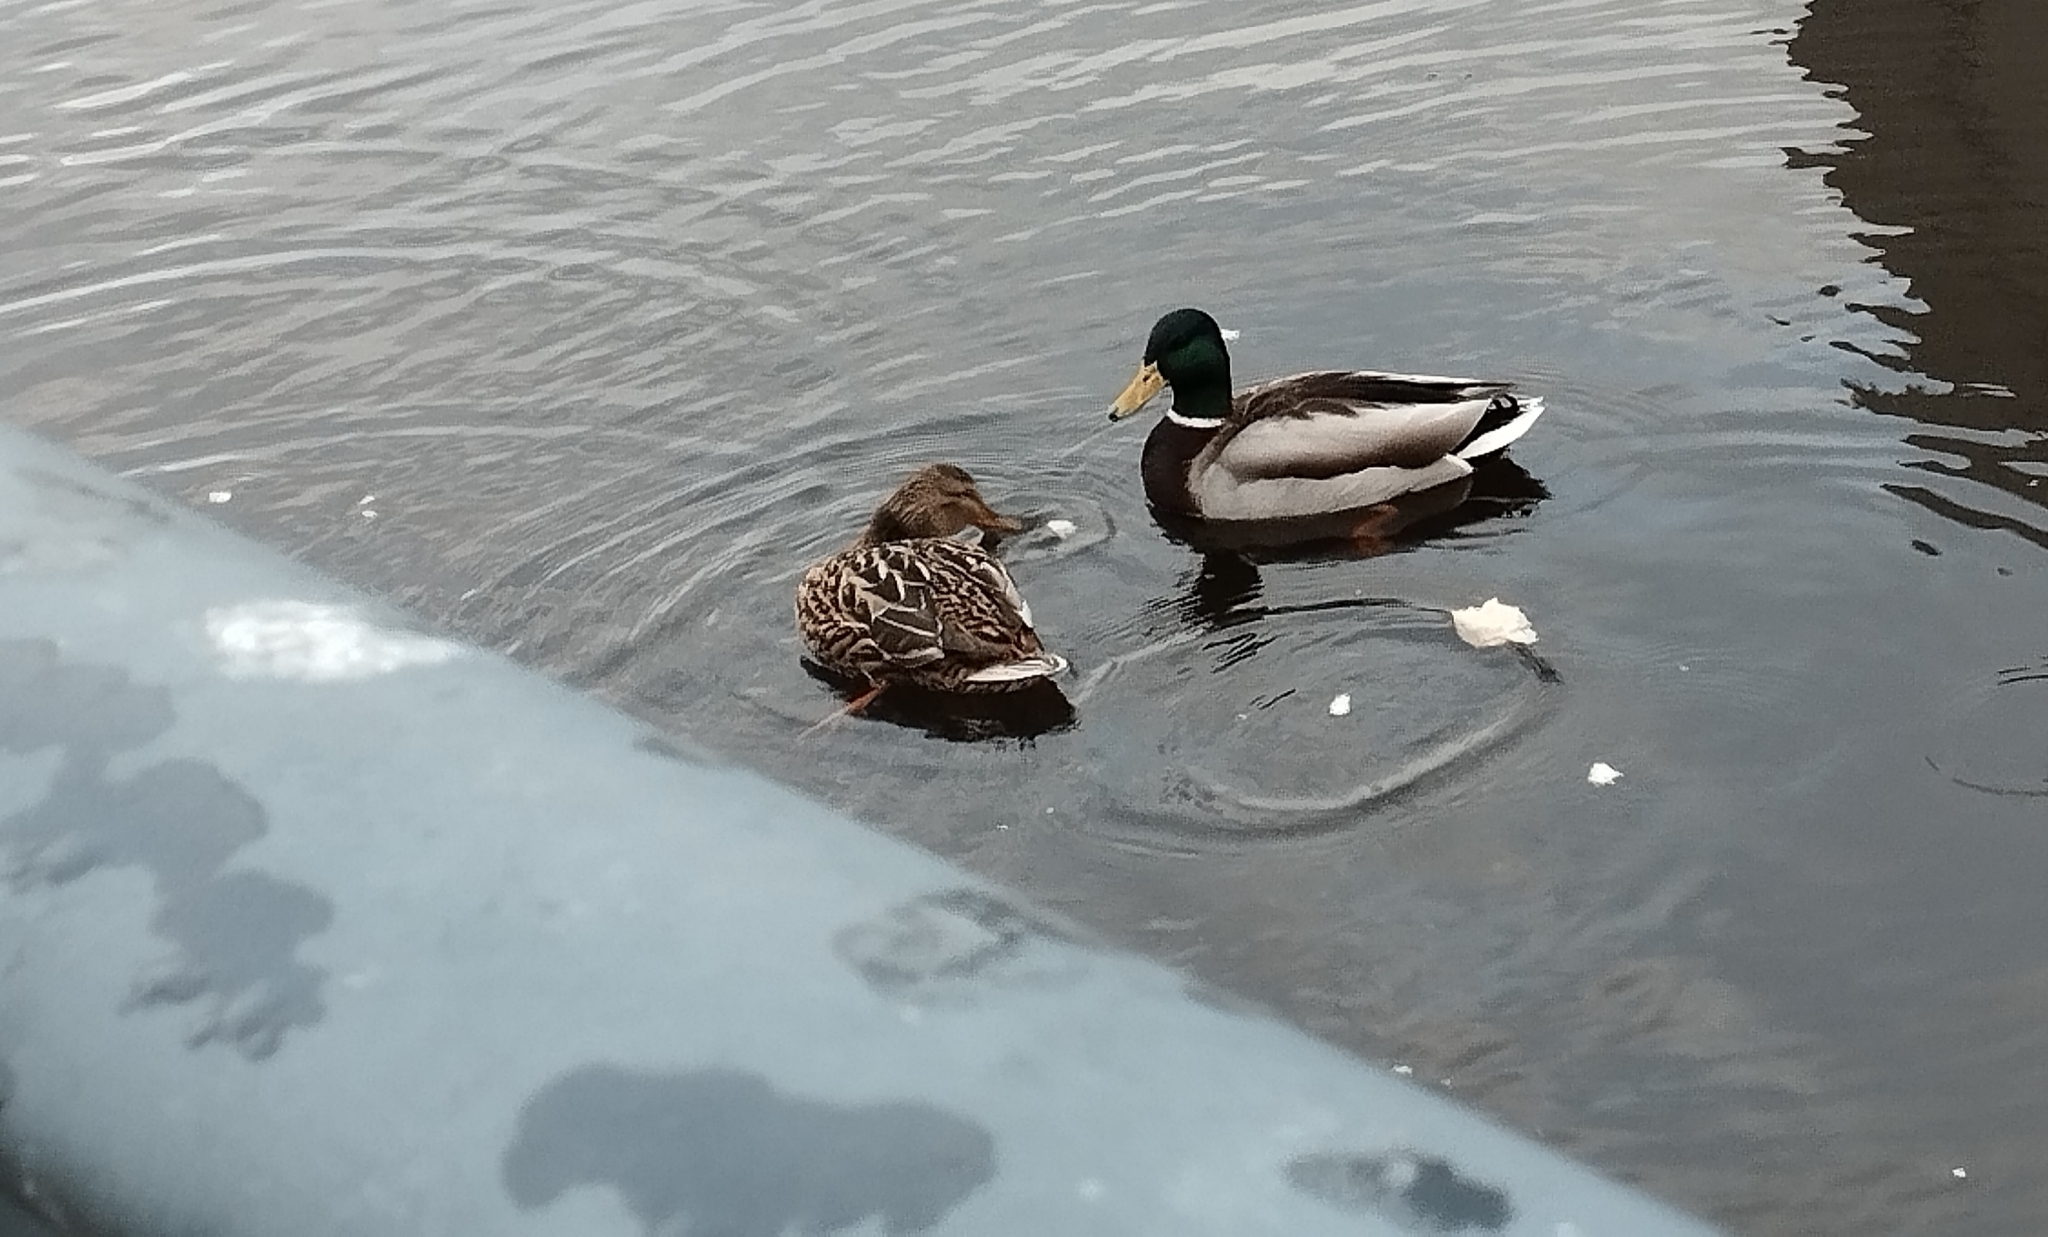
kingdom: Animalia
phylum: Chordata
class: Aves
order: Anseriformes
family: Anatidae
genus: Anas
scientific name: Anas platyrhynchos
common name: Mallard
